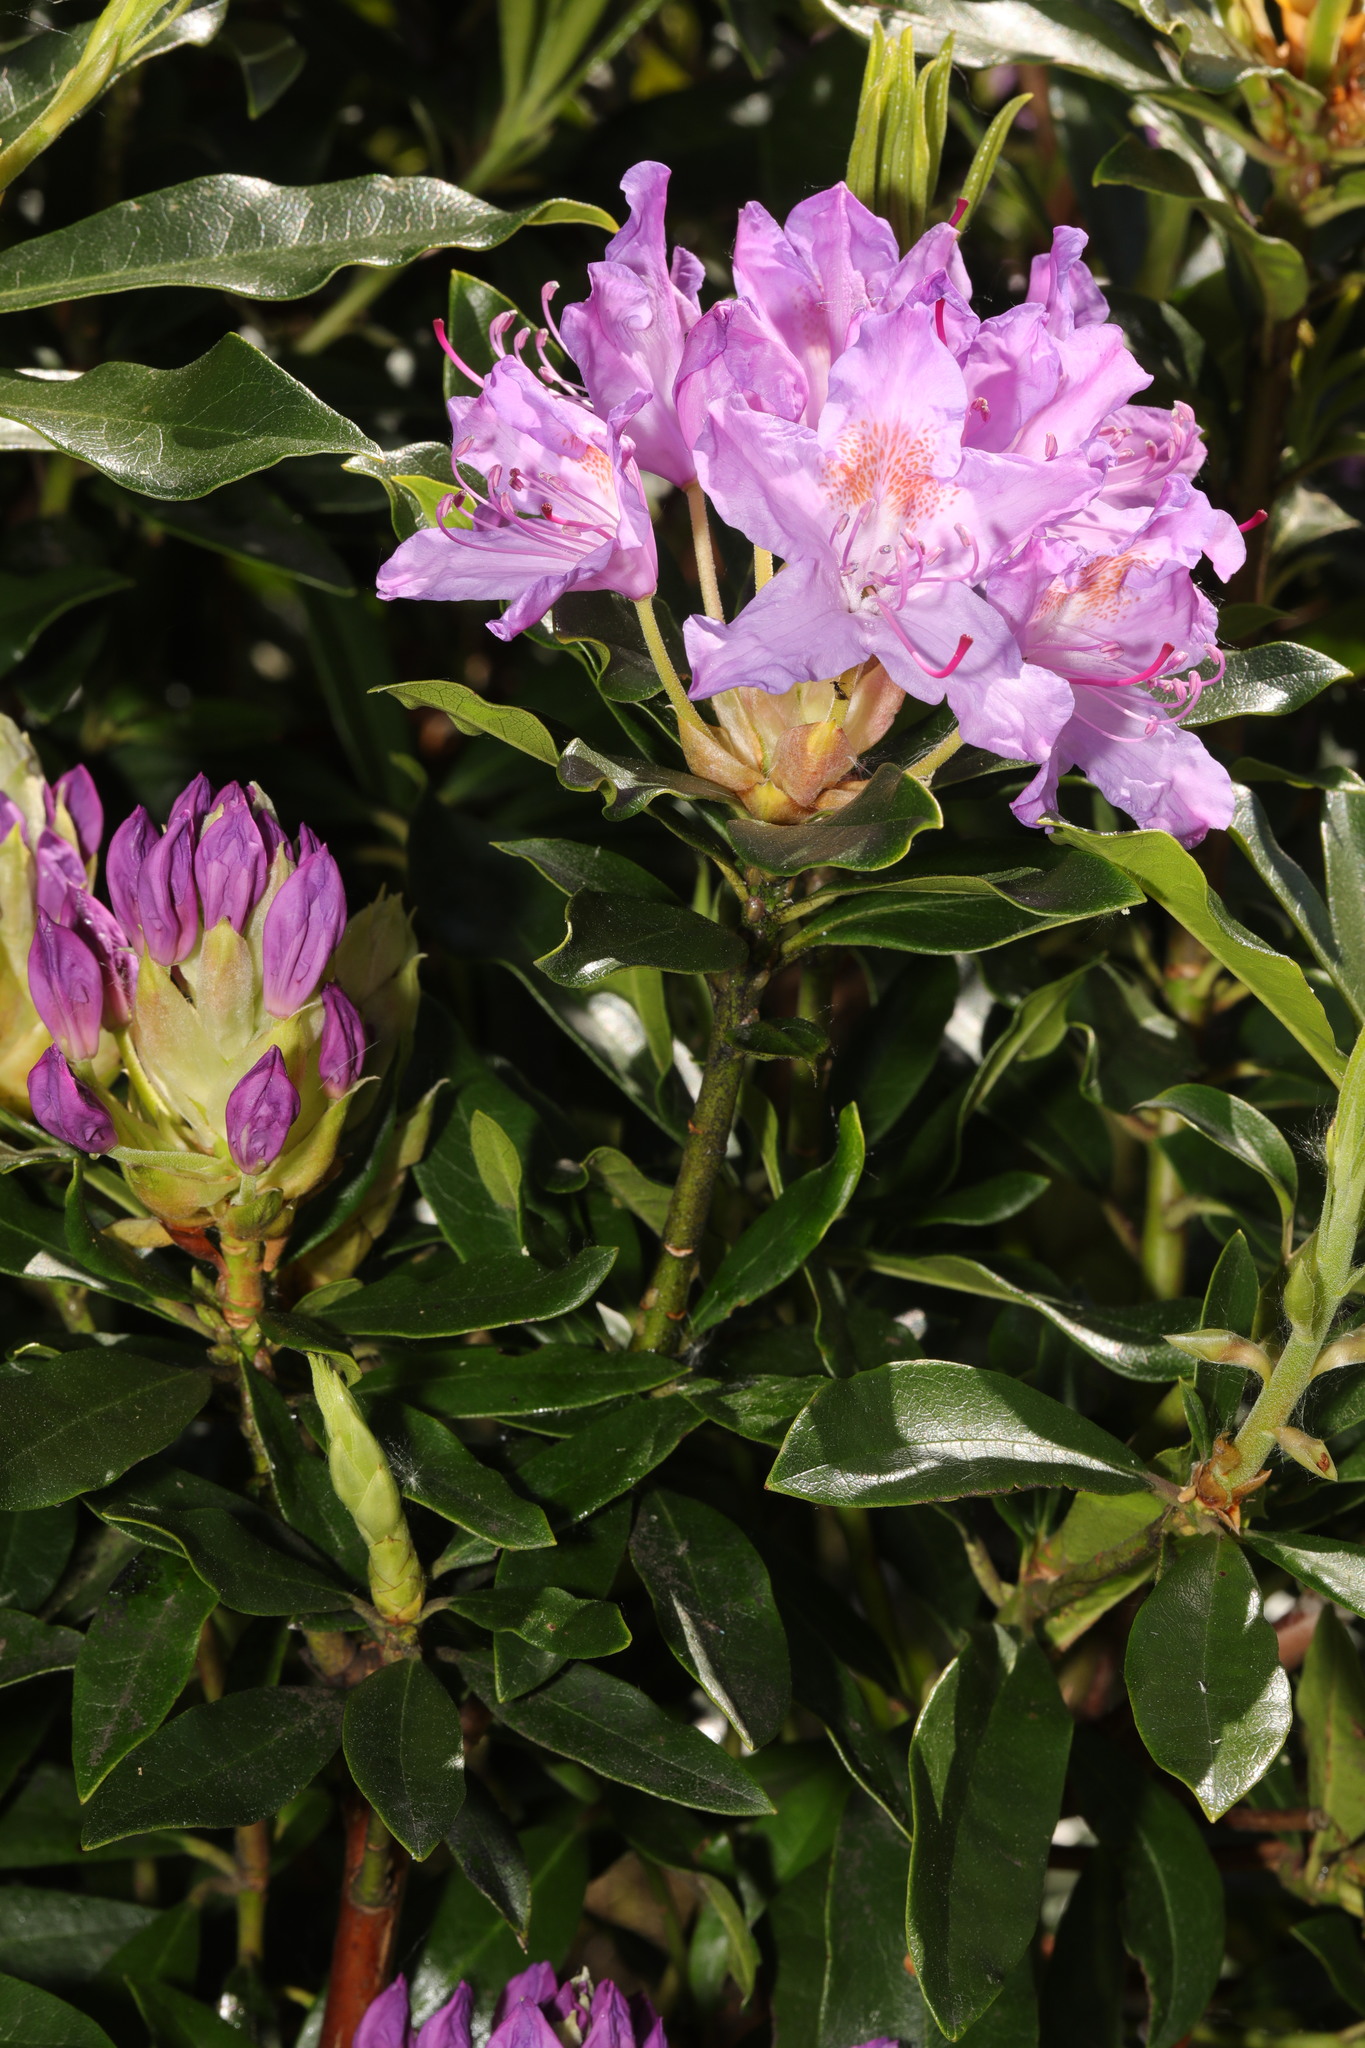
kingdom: Plantae
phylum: Tracheophyta
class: Magnoliopsida
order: Ericales
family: Ericaceae
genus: Rhododendron
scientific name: Rhododendron ponticum
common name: Rhododendron
